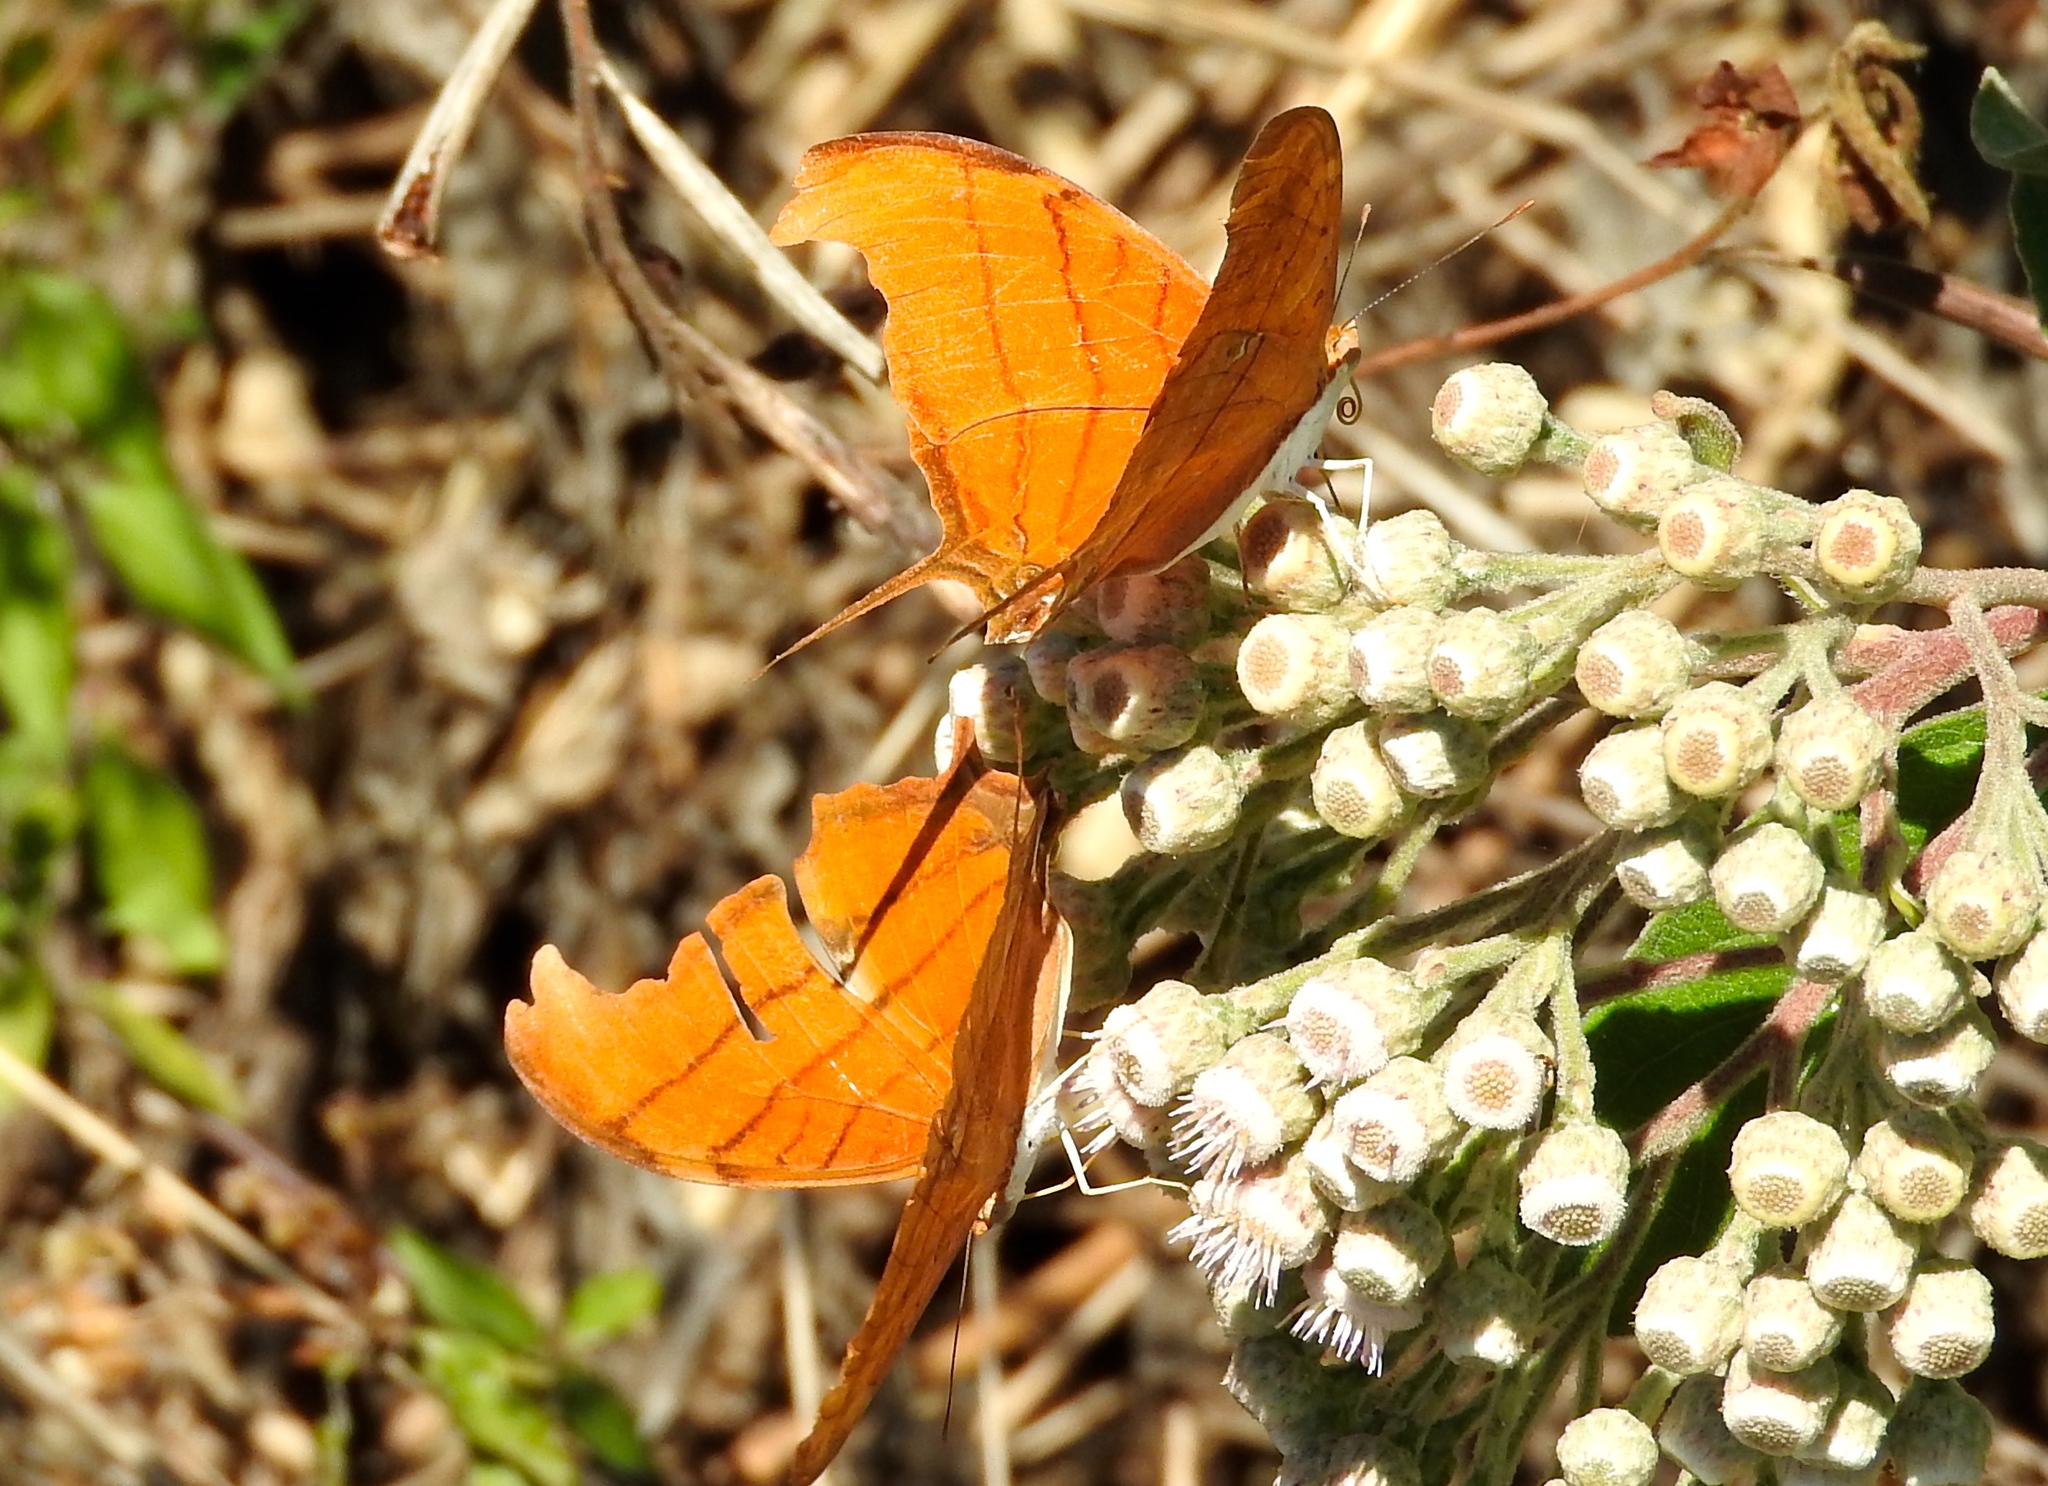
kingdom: Animalia
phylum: Arthropoda
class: Insecta
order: Lepidoptera
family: Nymphalidae
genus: Marpesia
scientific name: Marpesia petreus
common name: Red dagger wing
